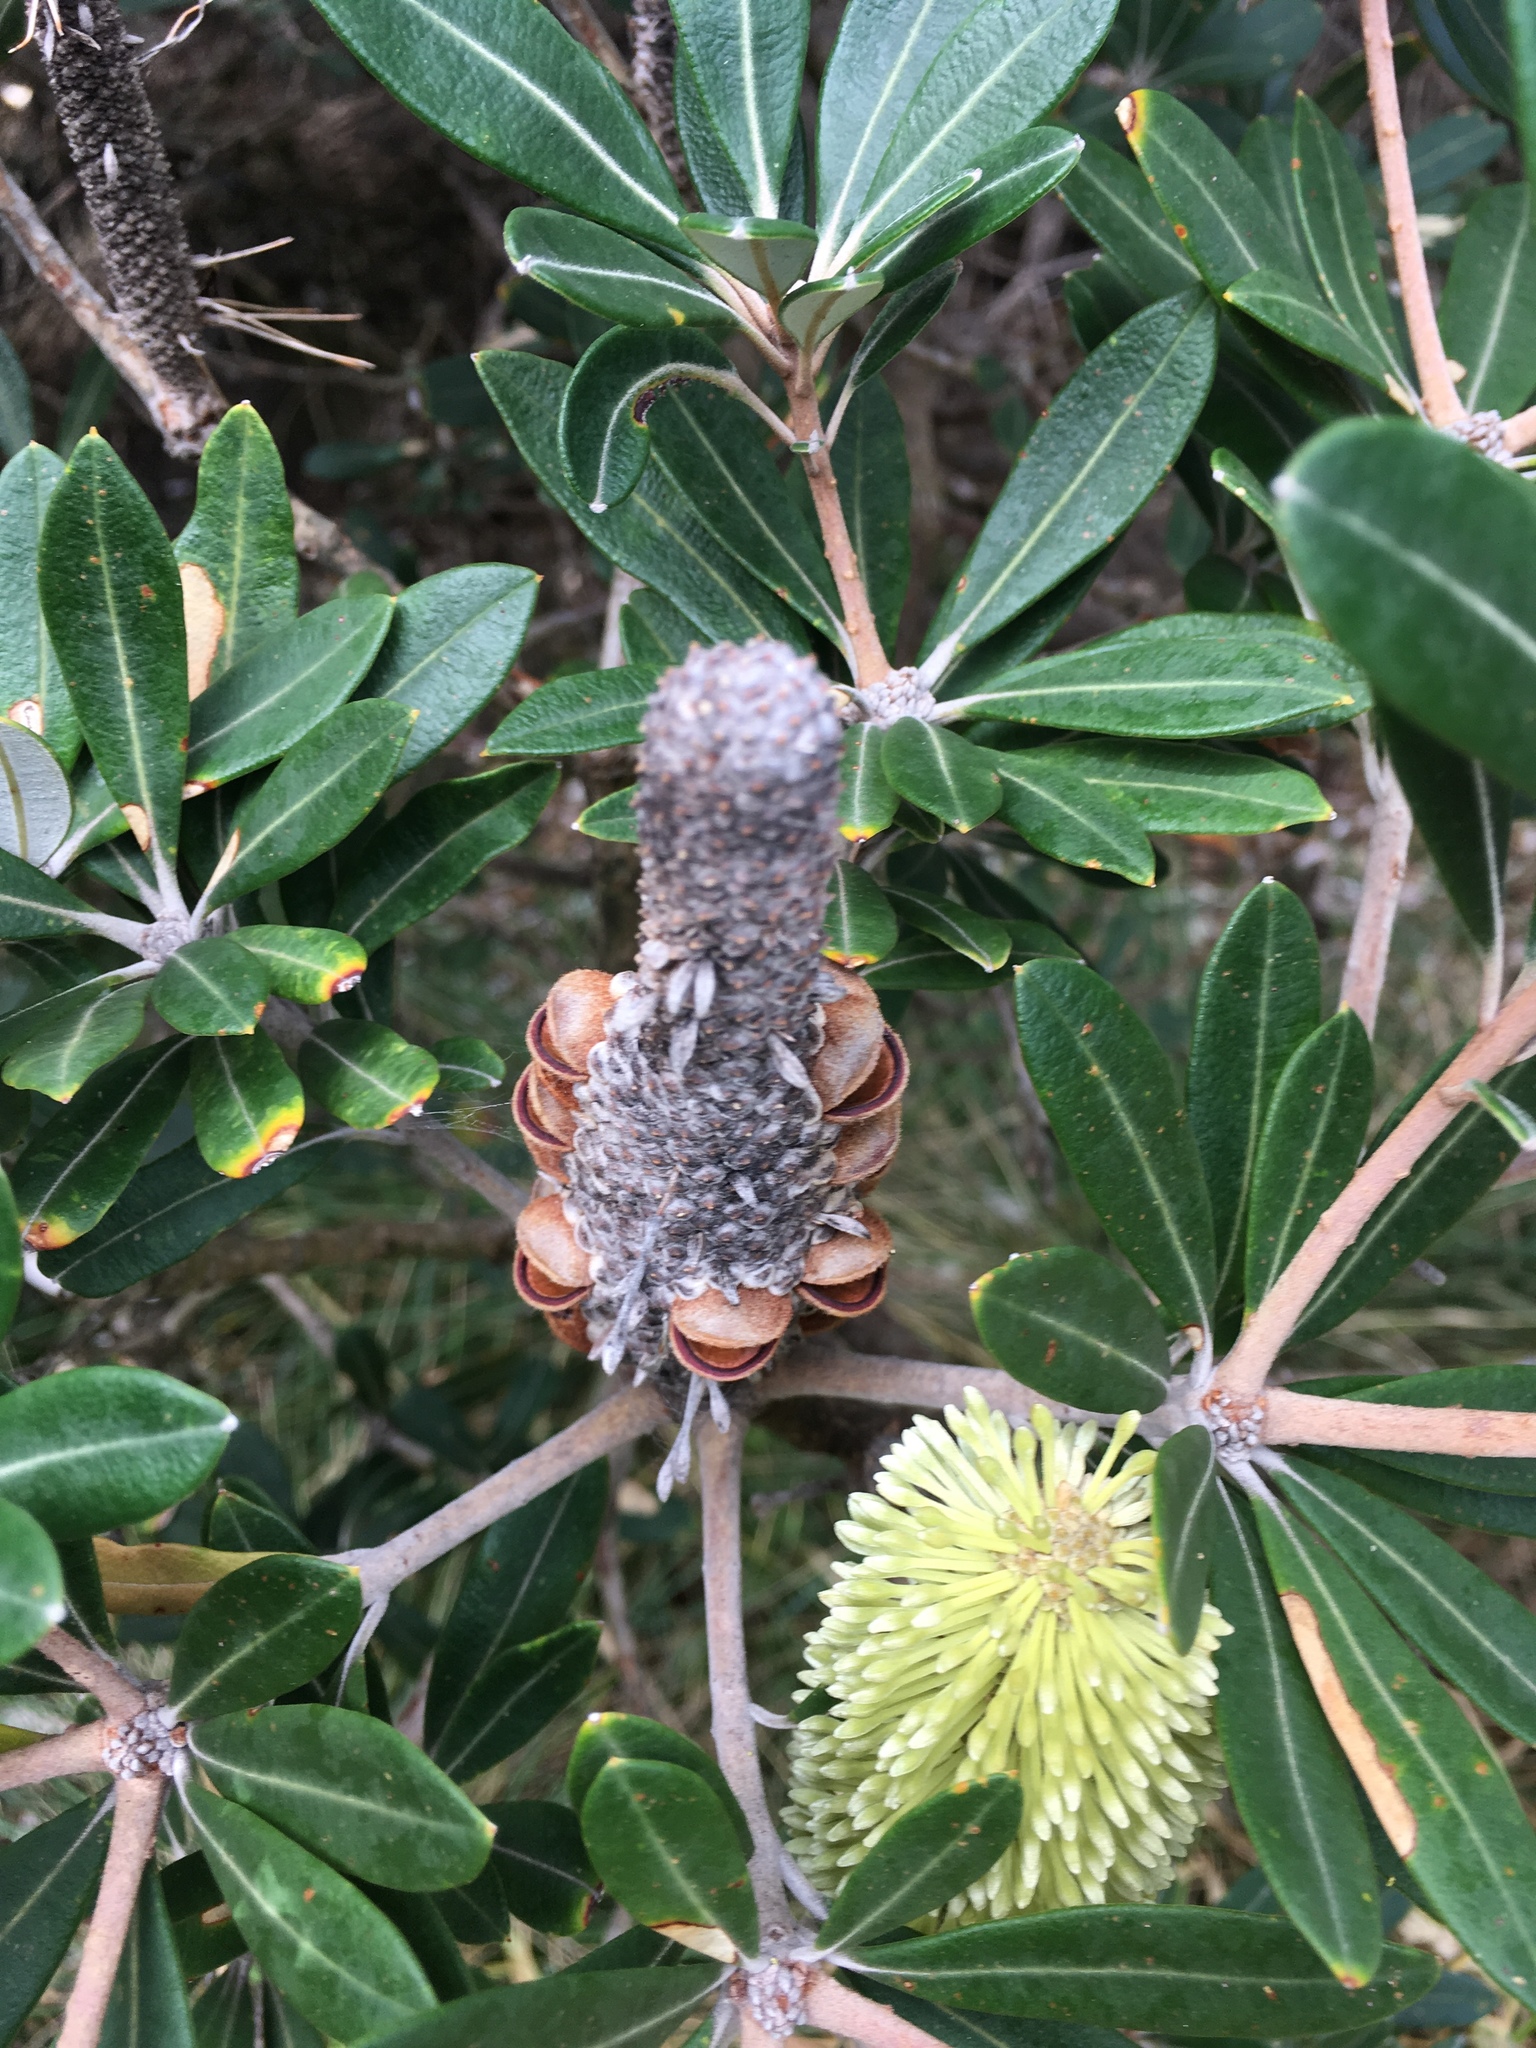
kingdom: Plantae
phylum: Tracheophyta
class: Magnoliopsida
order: Proteales
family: Proteaceae
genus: Banksia
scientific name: Banksia integrifolia
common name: White-honeysuckle
